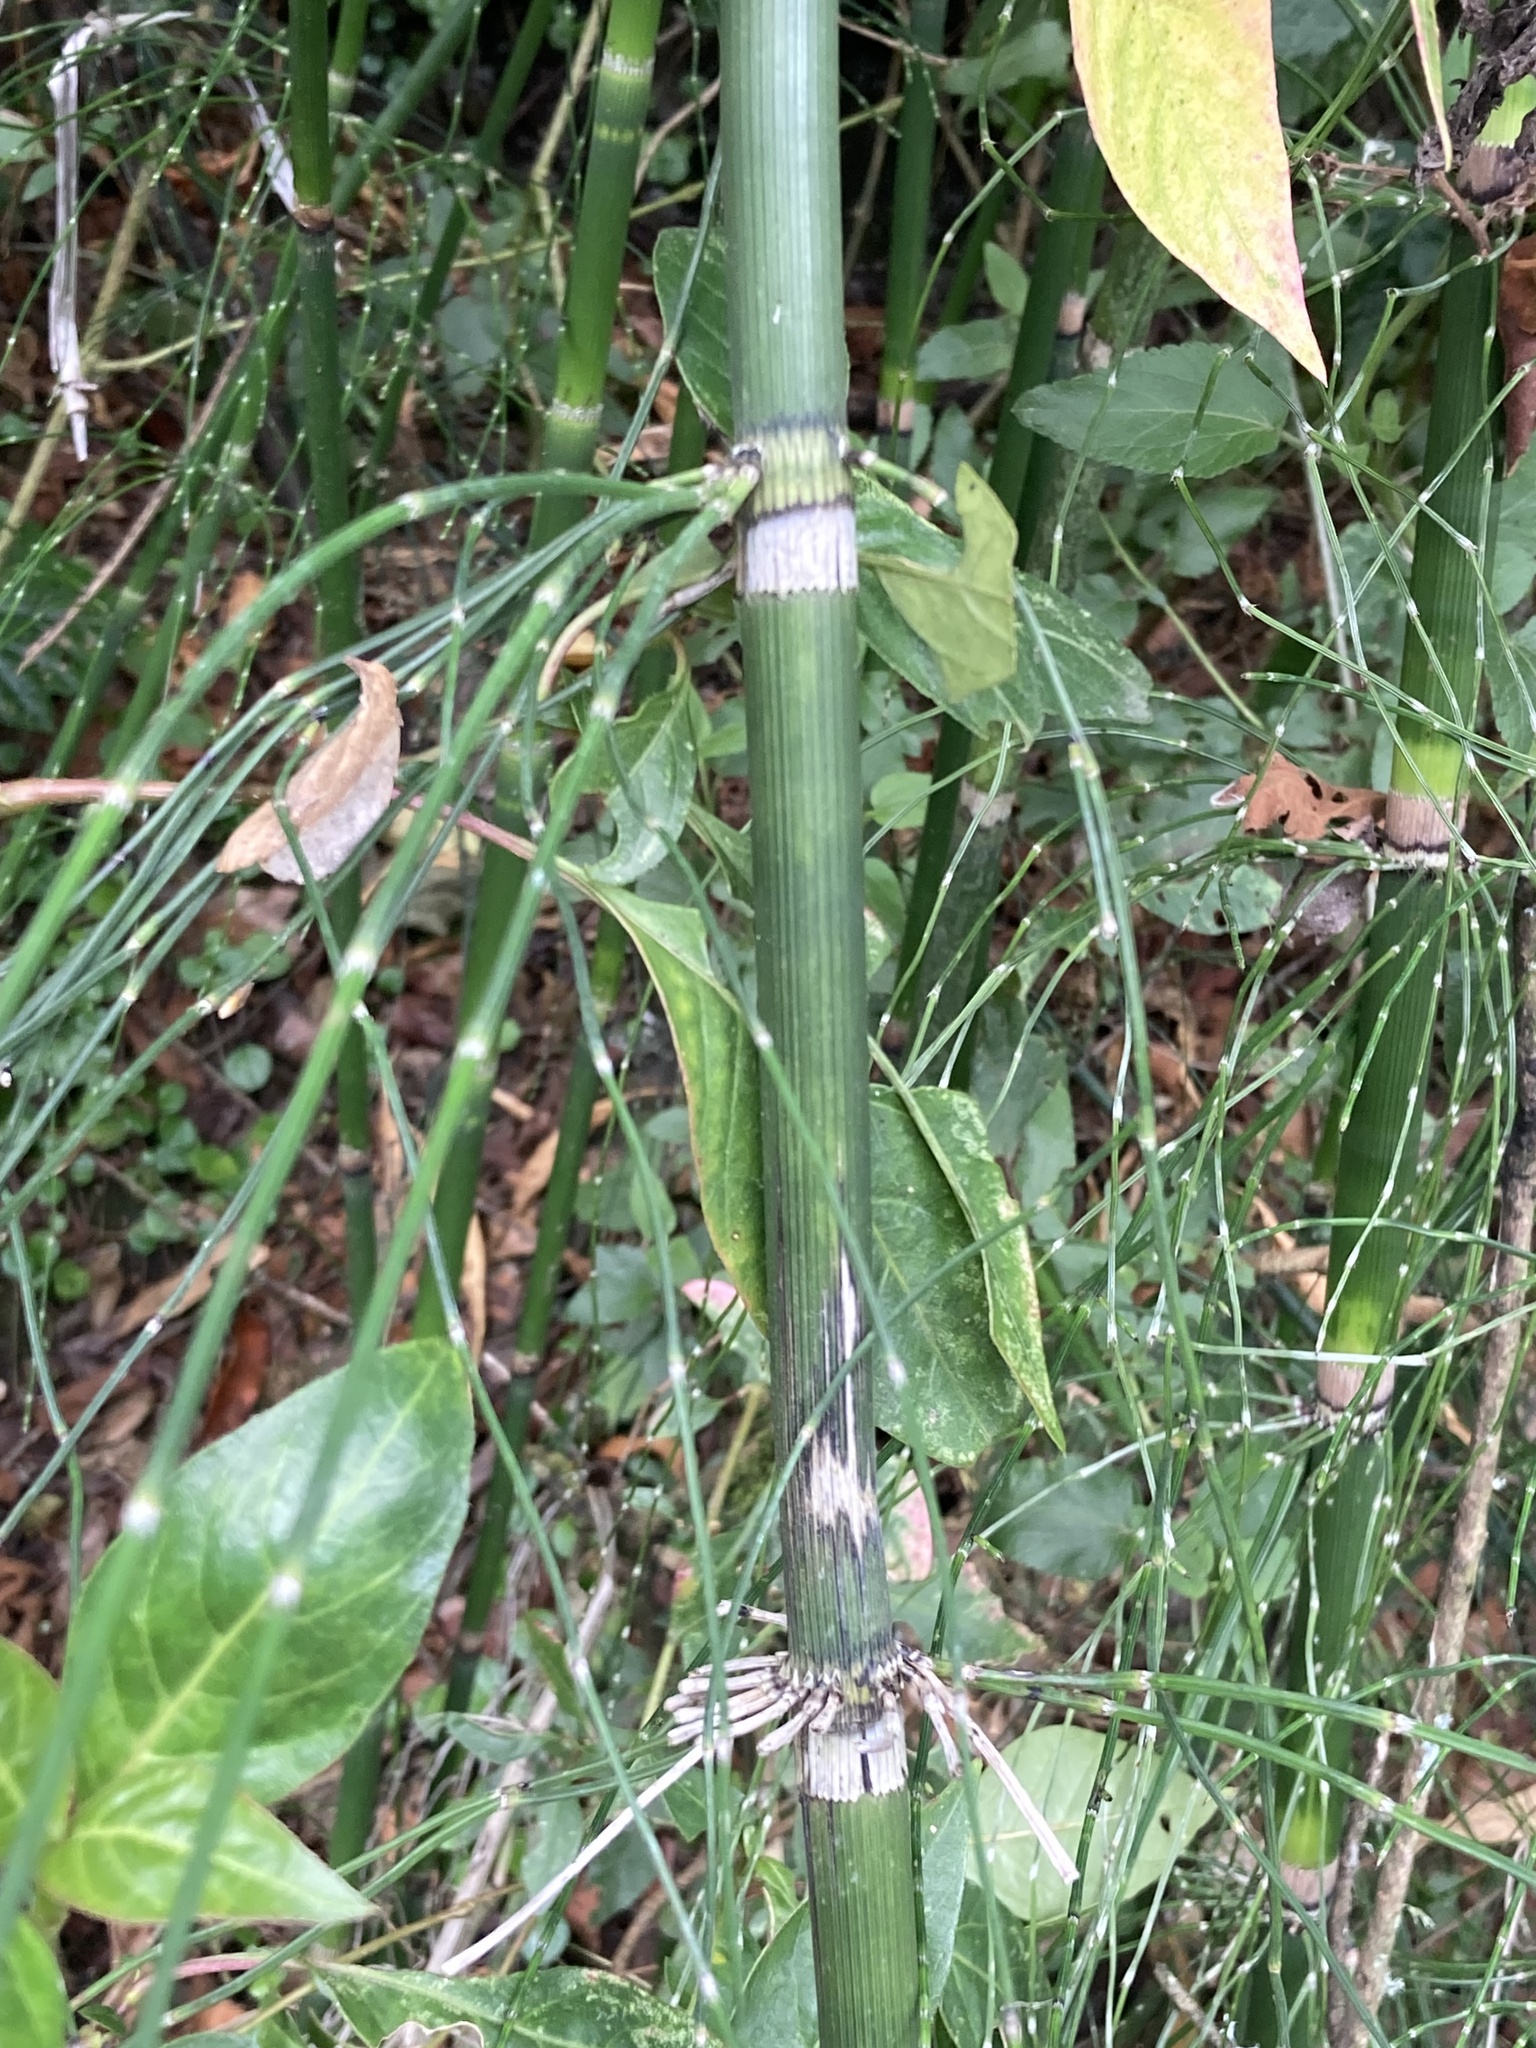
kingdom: Plantae
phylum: Tracheophyta
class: Polypodiopsida
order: Equisetales
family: Equisetaceae
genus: Equisetum
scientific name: Equisetum giganteum
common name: Giant horsetail
